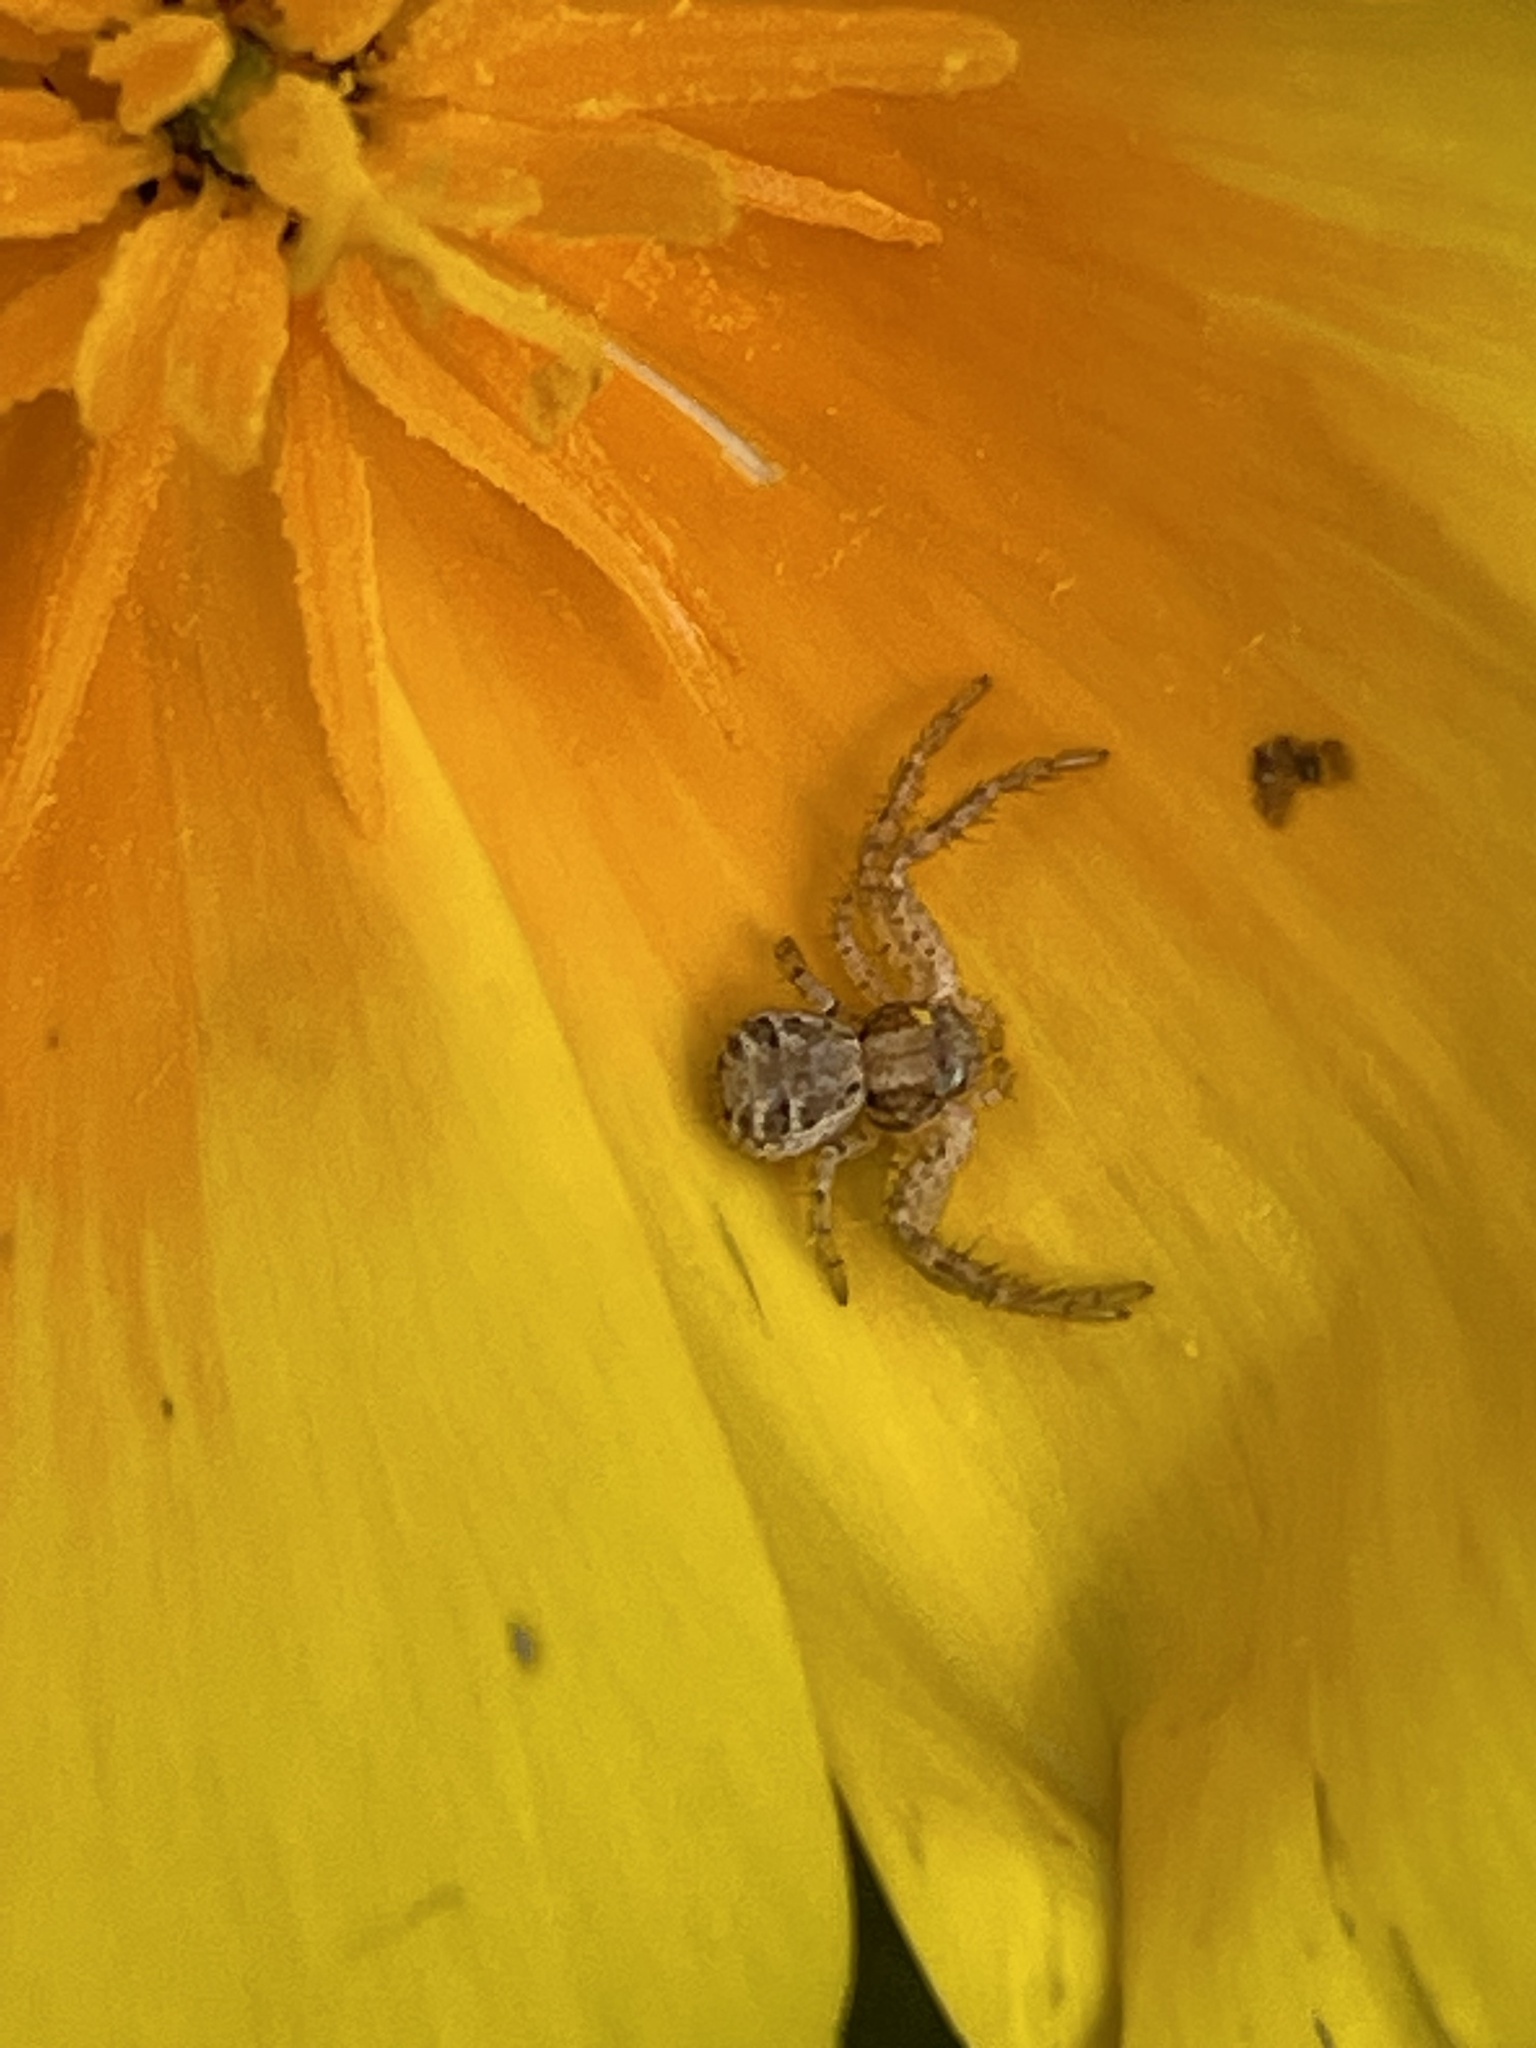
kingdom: Animalia
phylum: Arthropoda
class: Arachnida
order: Araneae
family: Thomisidae
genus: Xysticus
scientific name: Xysticus
